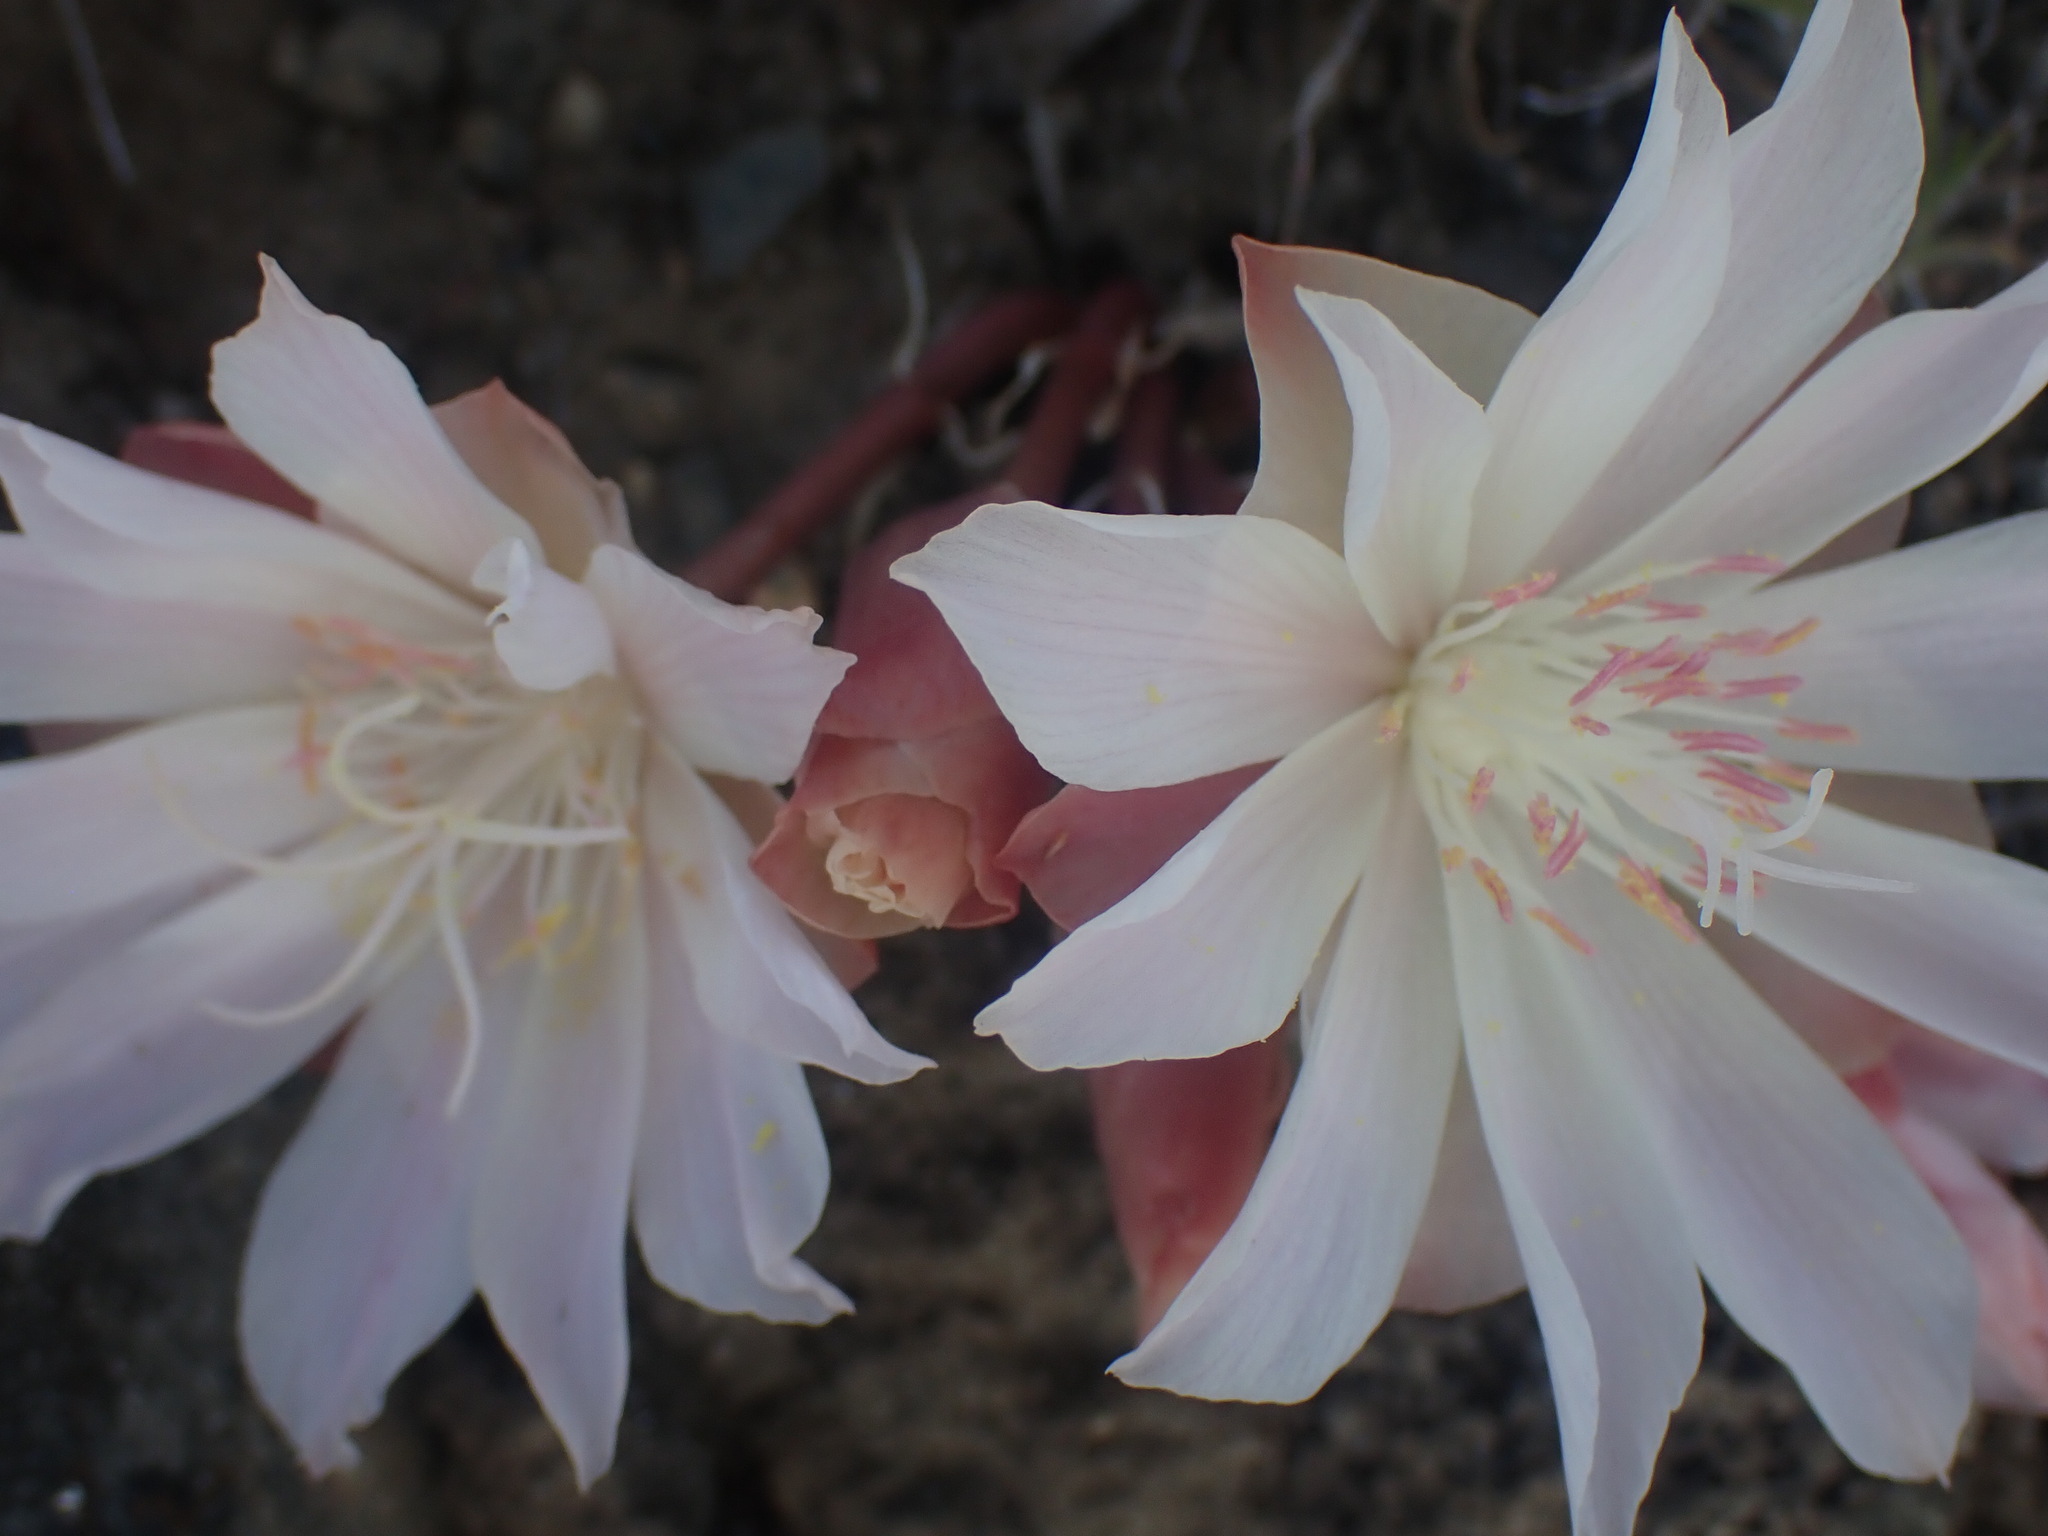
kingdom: Plantae
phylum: Tracheophyta
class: Magnoliopsida
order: Caryophyllales
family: Montiaceae
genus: Lewisia
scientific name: Lewisia rediviva
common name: Bitter-root
